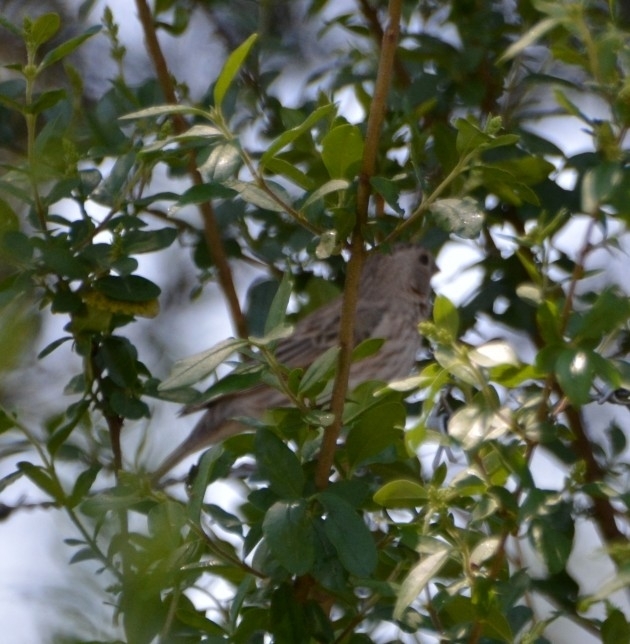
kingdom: Animalia
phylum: Chordata
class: Aves
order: Passeriformes
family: Thraupidae
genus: Sicalis
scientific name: Sicalis flaveola
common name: Saffron finch
